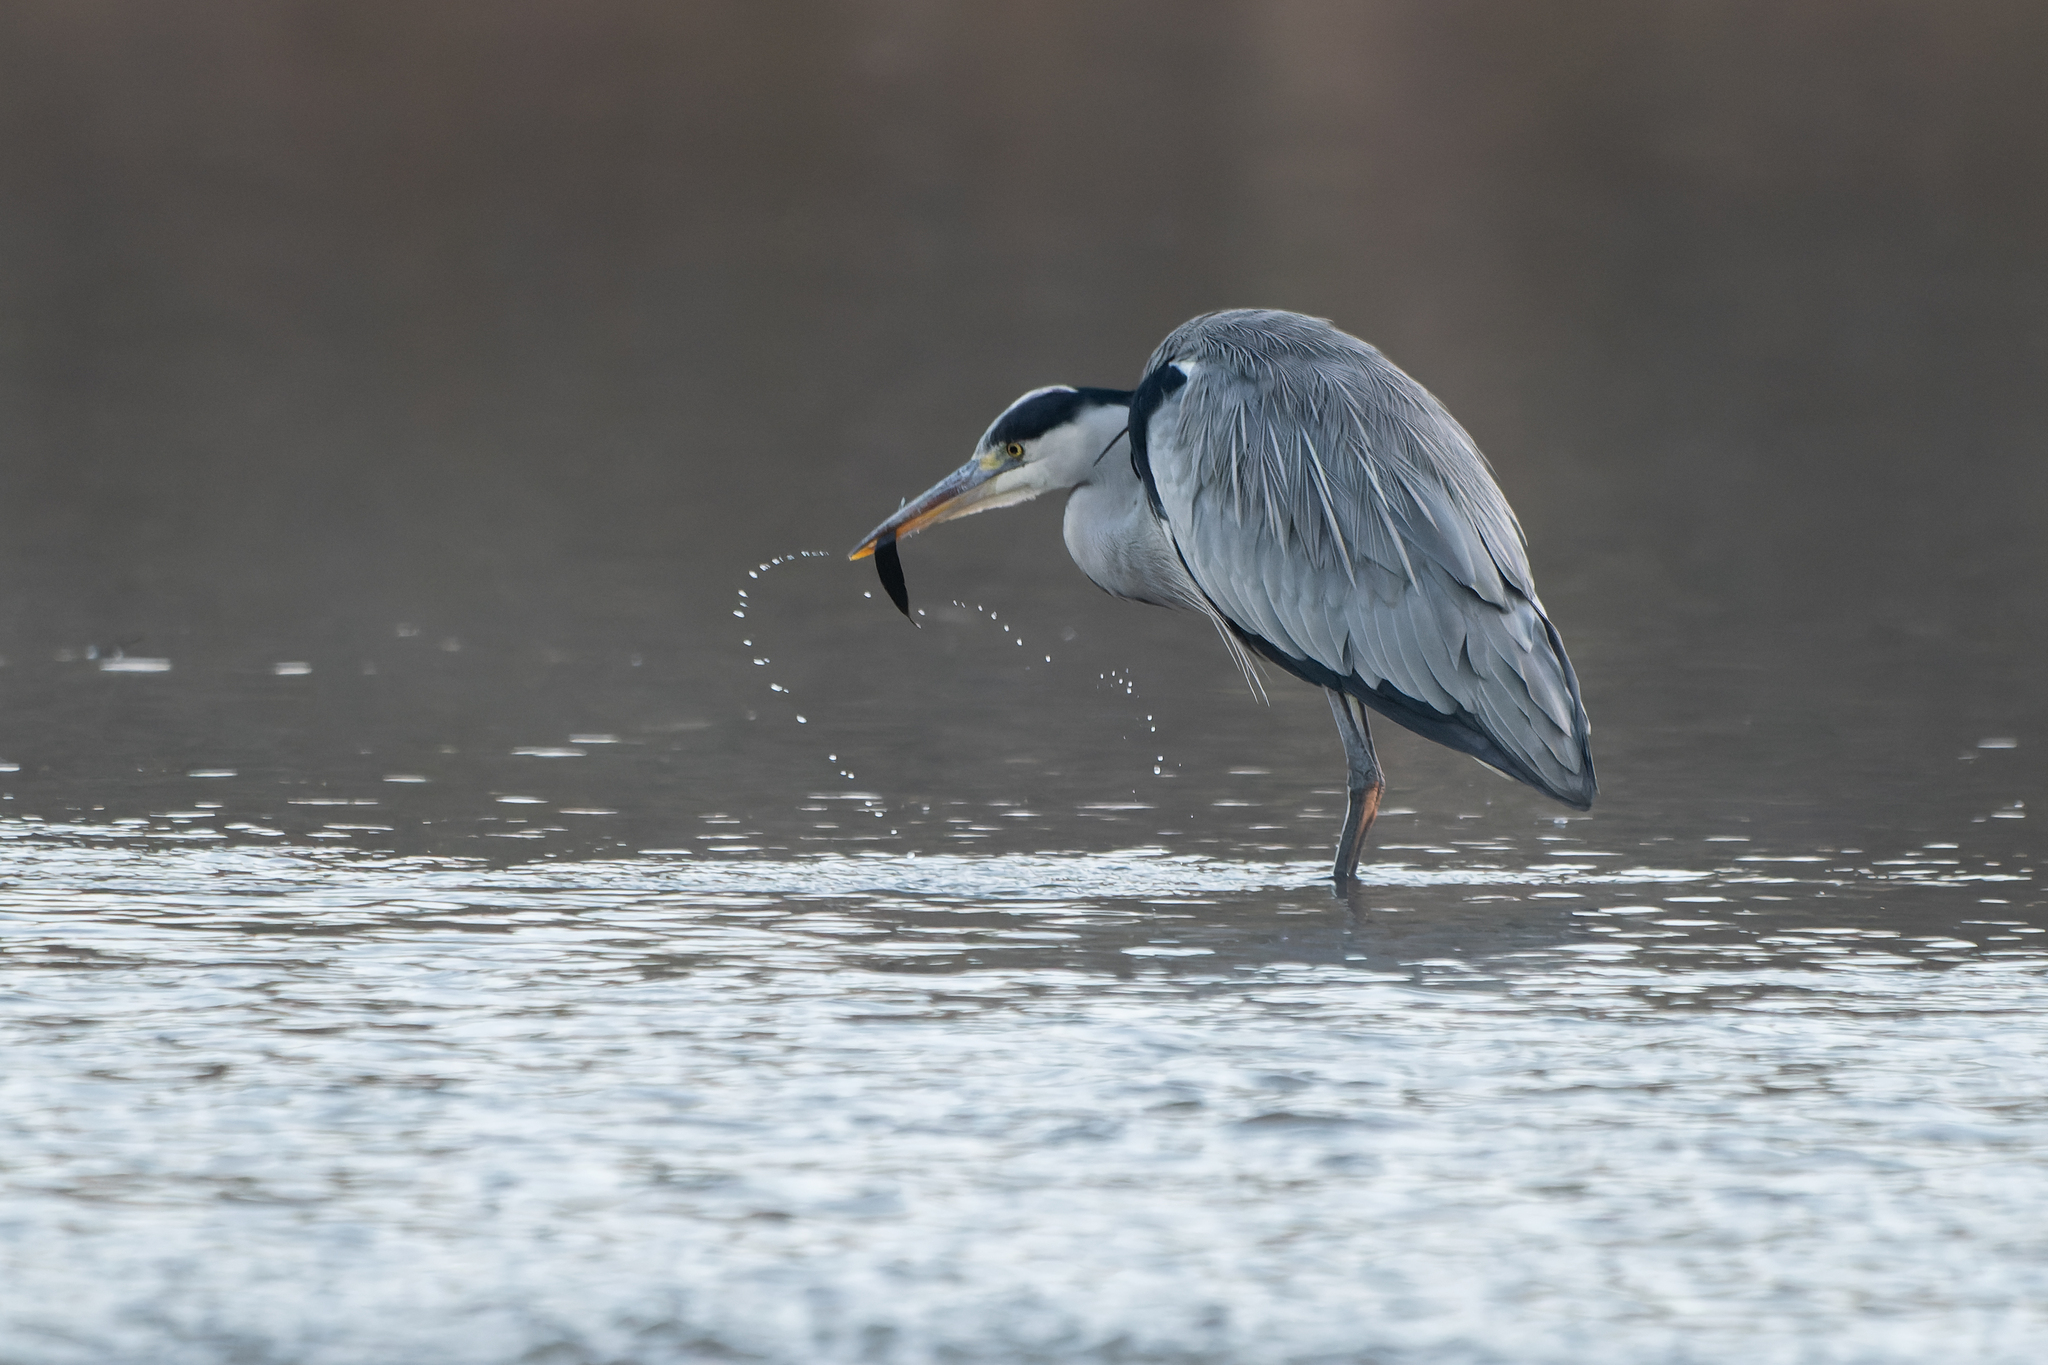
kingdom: Animalia
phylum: Chordata
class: Aves
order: Pelecaniformes
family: Ardeidae
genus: Ardea
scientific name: Ardea cinerea
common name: Grey heron
